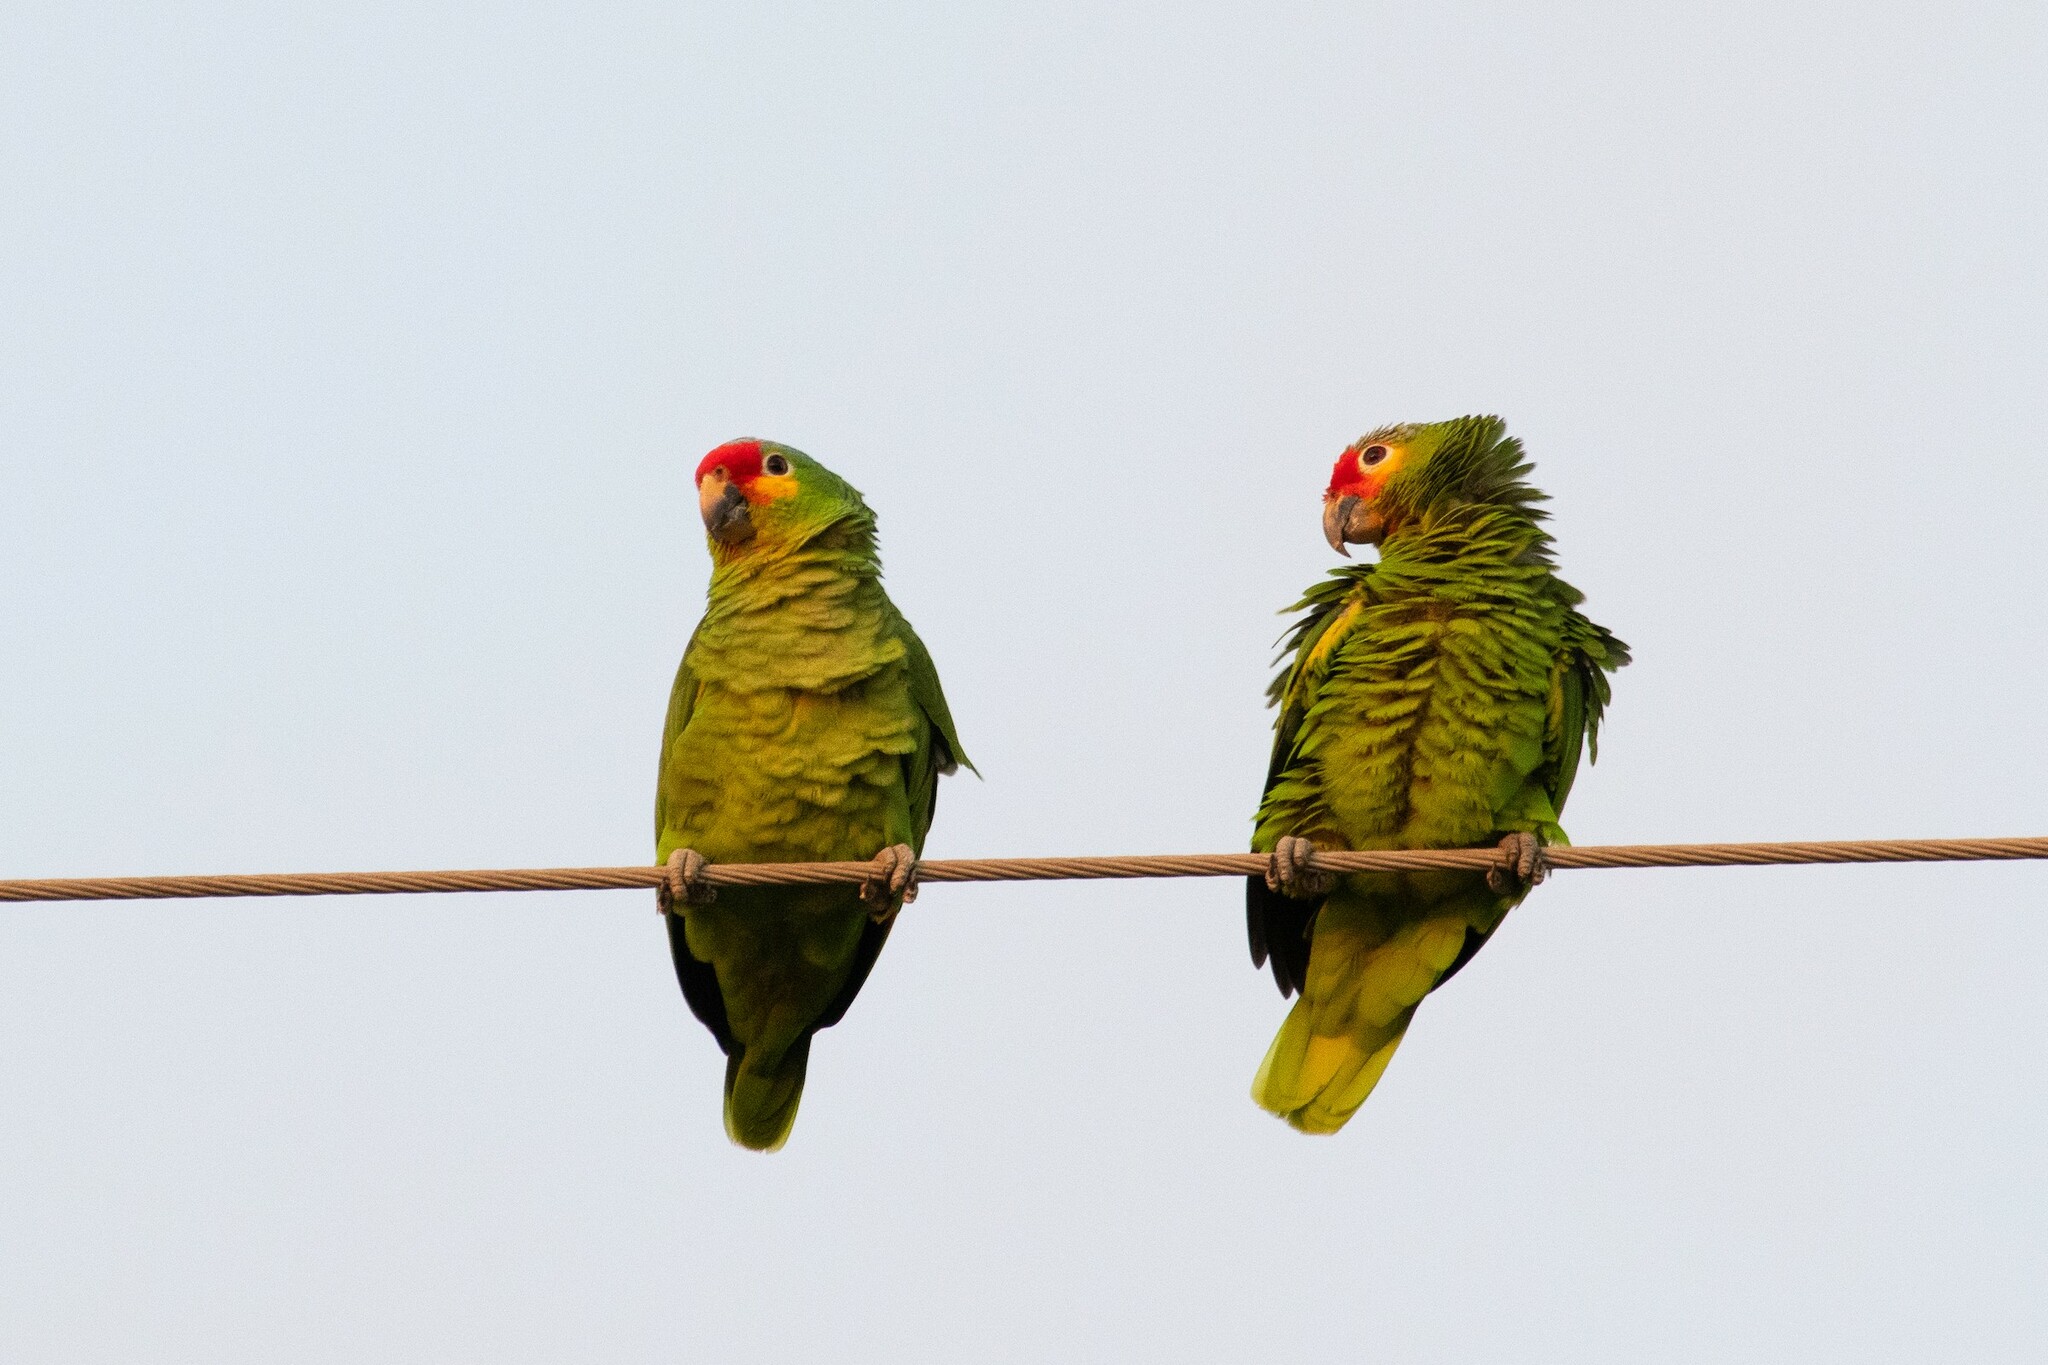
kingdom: Animalia
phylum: Chordata
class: Aves
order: Psittaciformes
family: Psittacidae
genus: Amazona
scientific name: Amazona autumnalis
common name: Red-lored amazon
